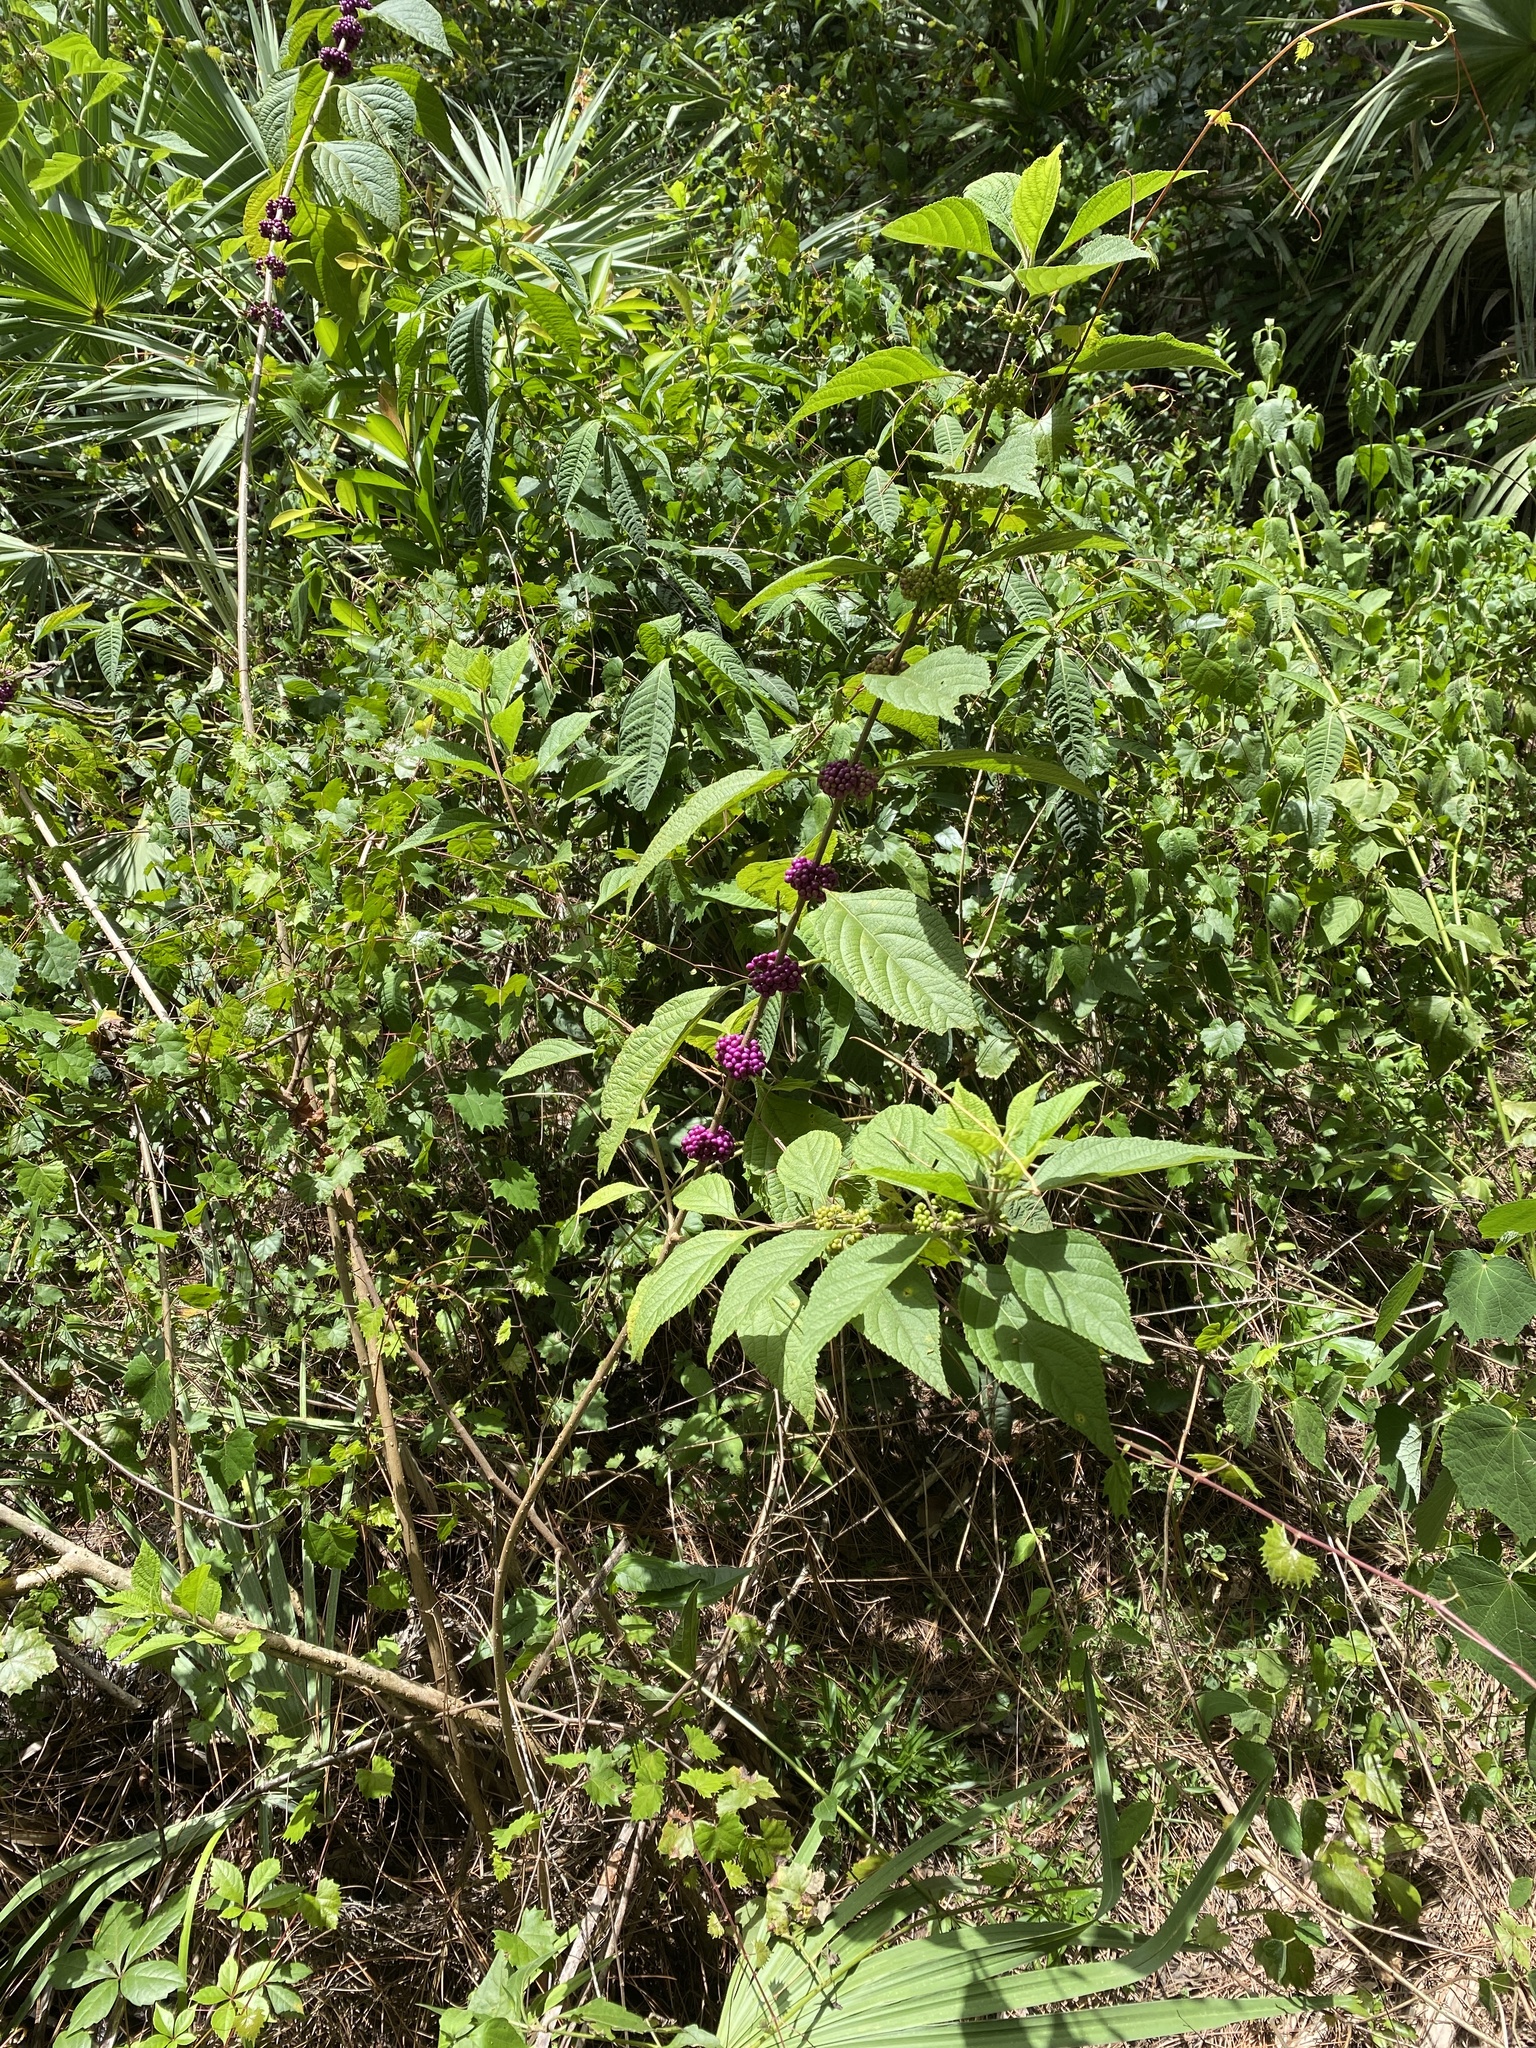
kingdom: Plantae
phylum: Tracheophyta
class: Magnoliopsida
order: Lamiales
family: Lamiaceae
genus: Callicarpa
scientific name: Callicarpa americana
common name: American beautyberry
